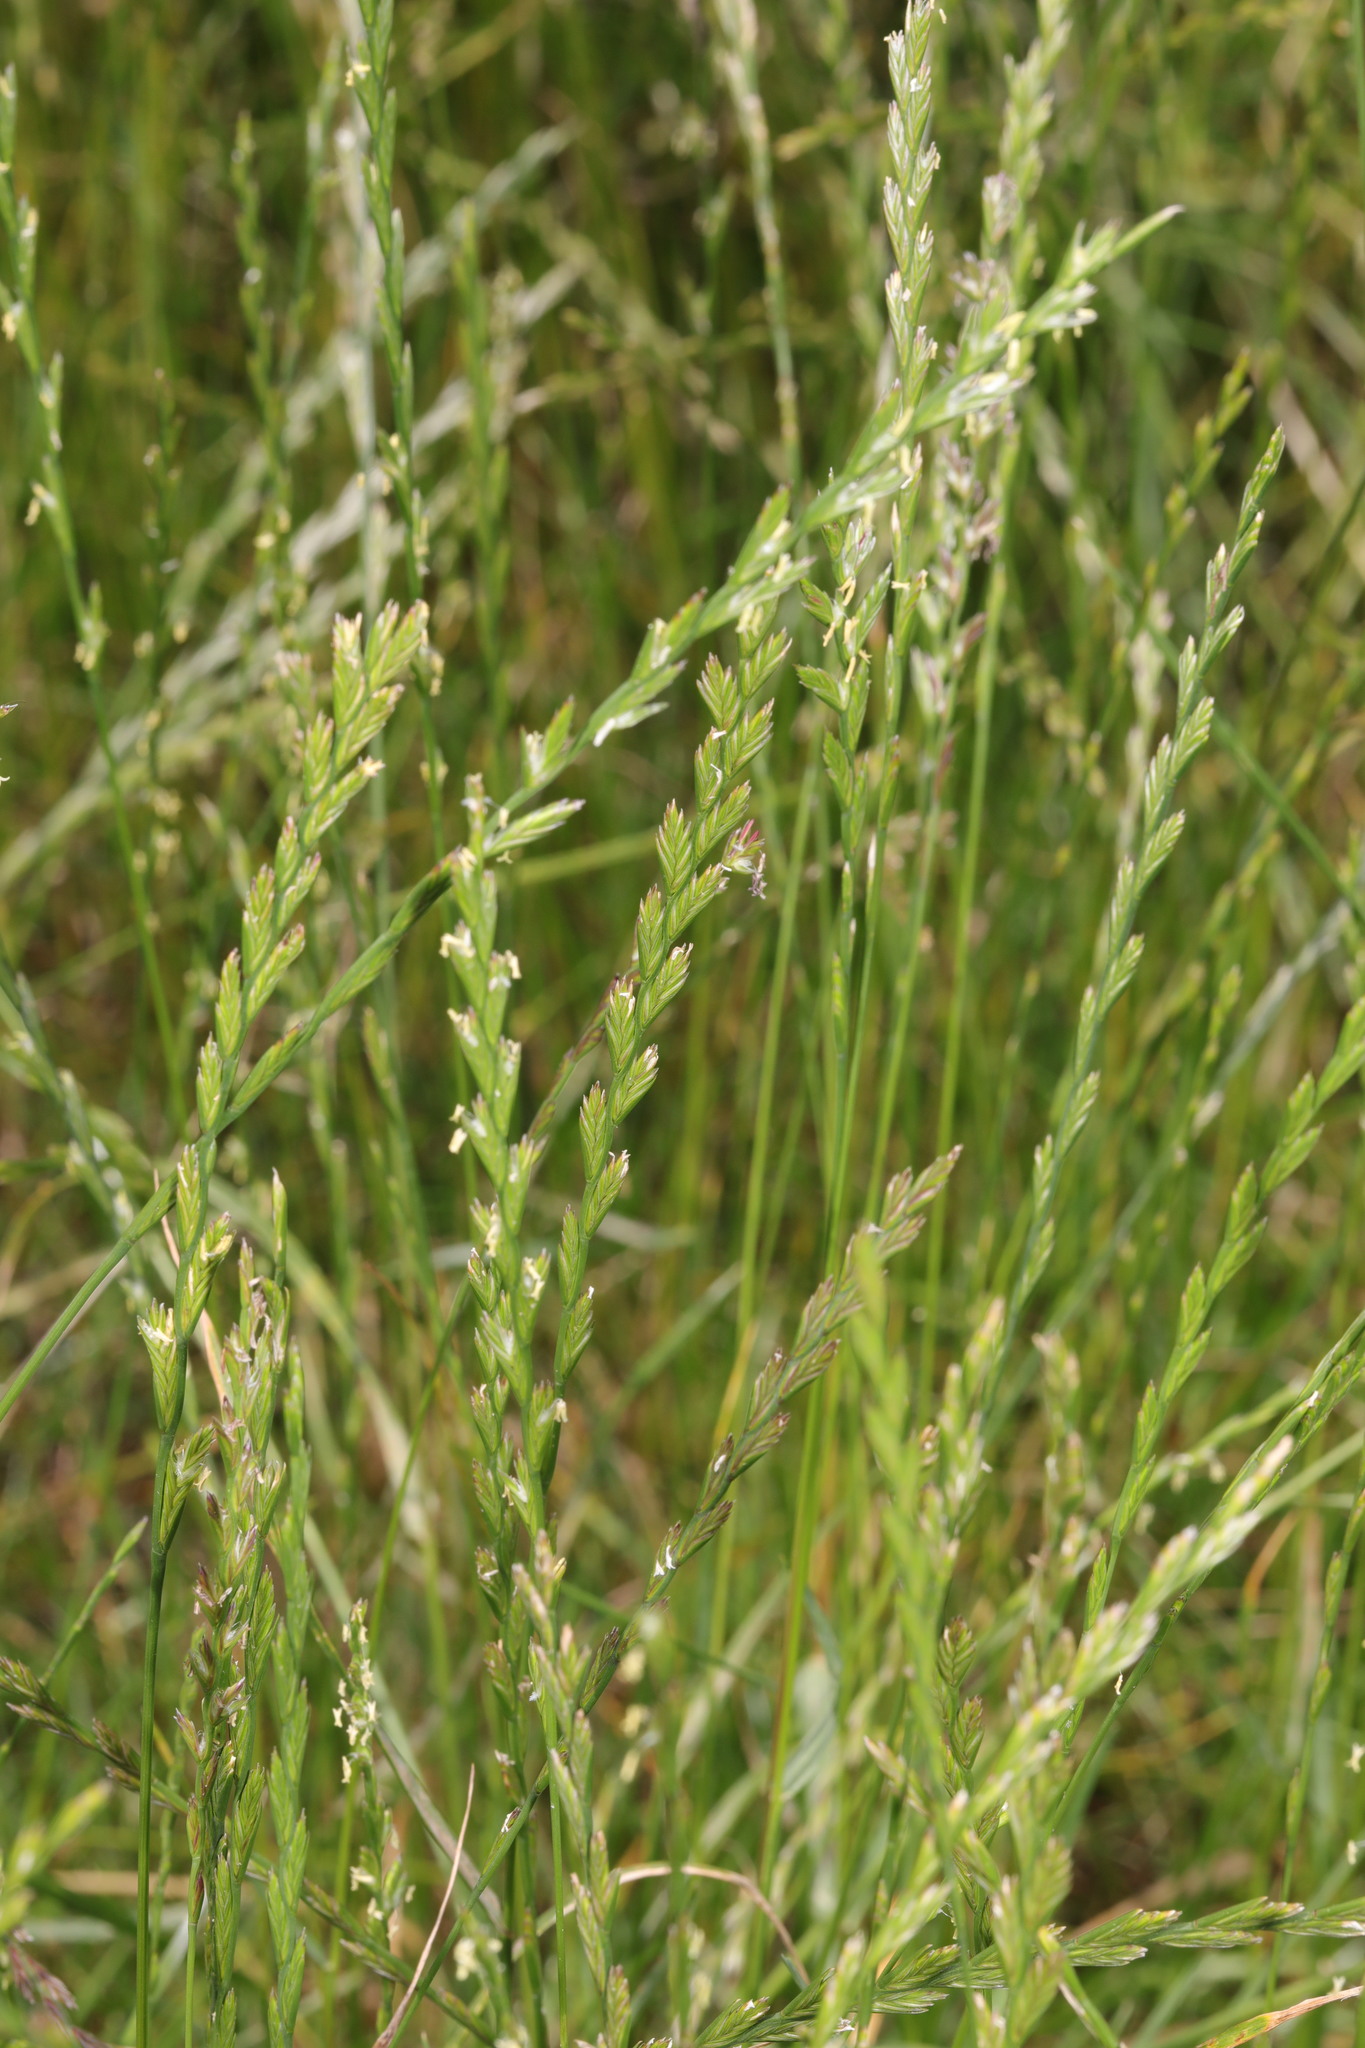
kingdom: Plantae
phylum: Tracheophyta
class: Liliopsida
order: Poales
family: Poaceae
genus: Lolium
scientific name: Lolium perenne
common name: Perennial ryegrass
